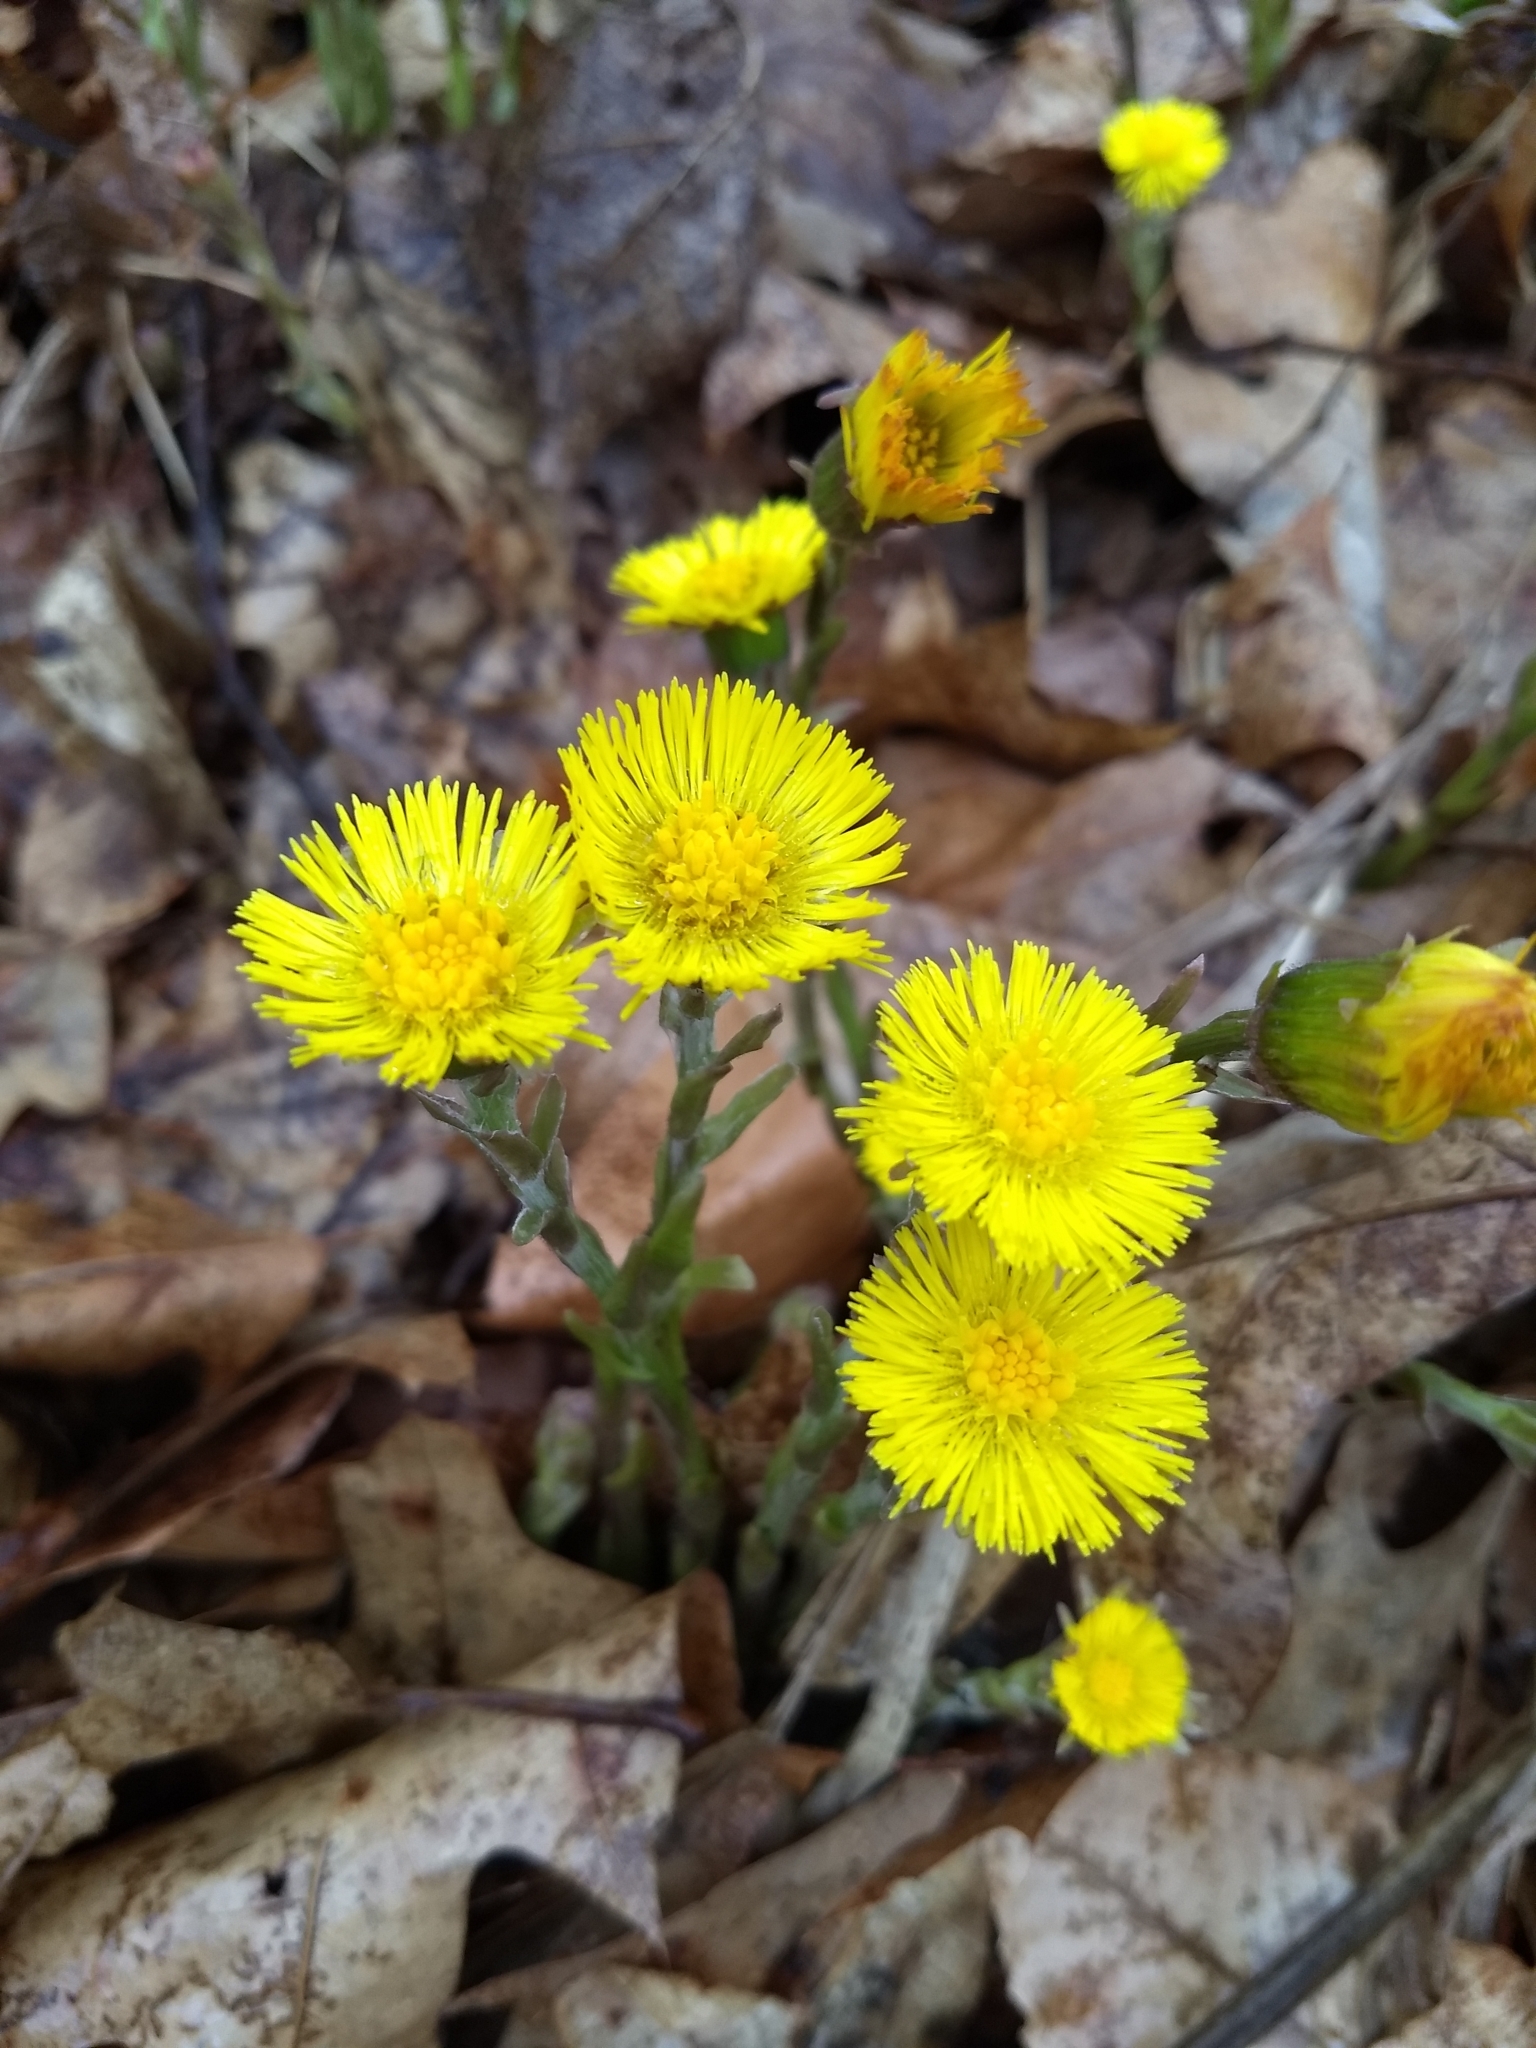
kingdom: Plantae
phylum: Tracheophyta
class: Magnoliopsida
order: Asterales
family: Asteraceae
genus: Tussilago
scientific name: Tussilago farfara
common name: Coltsfoot
